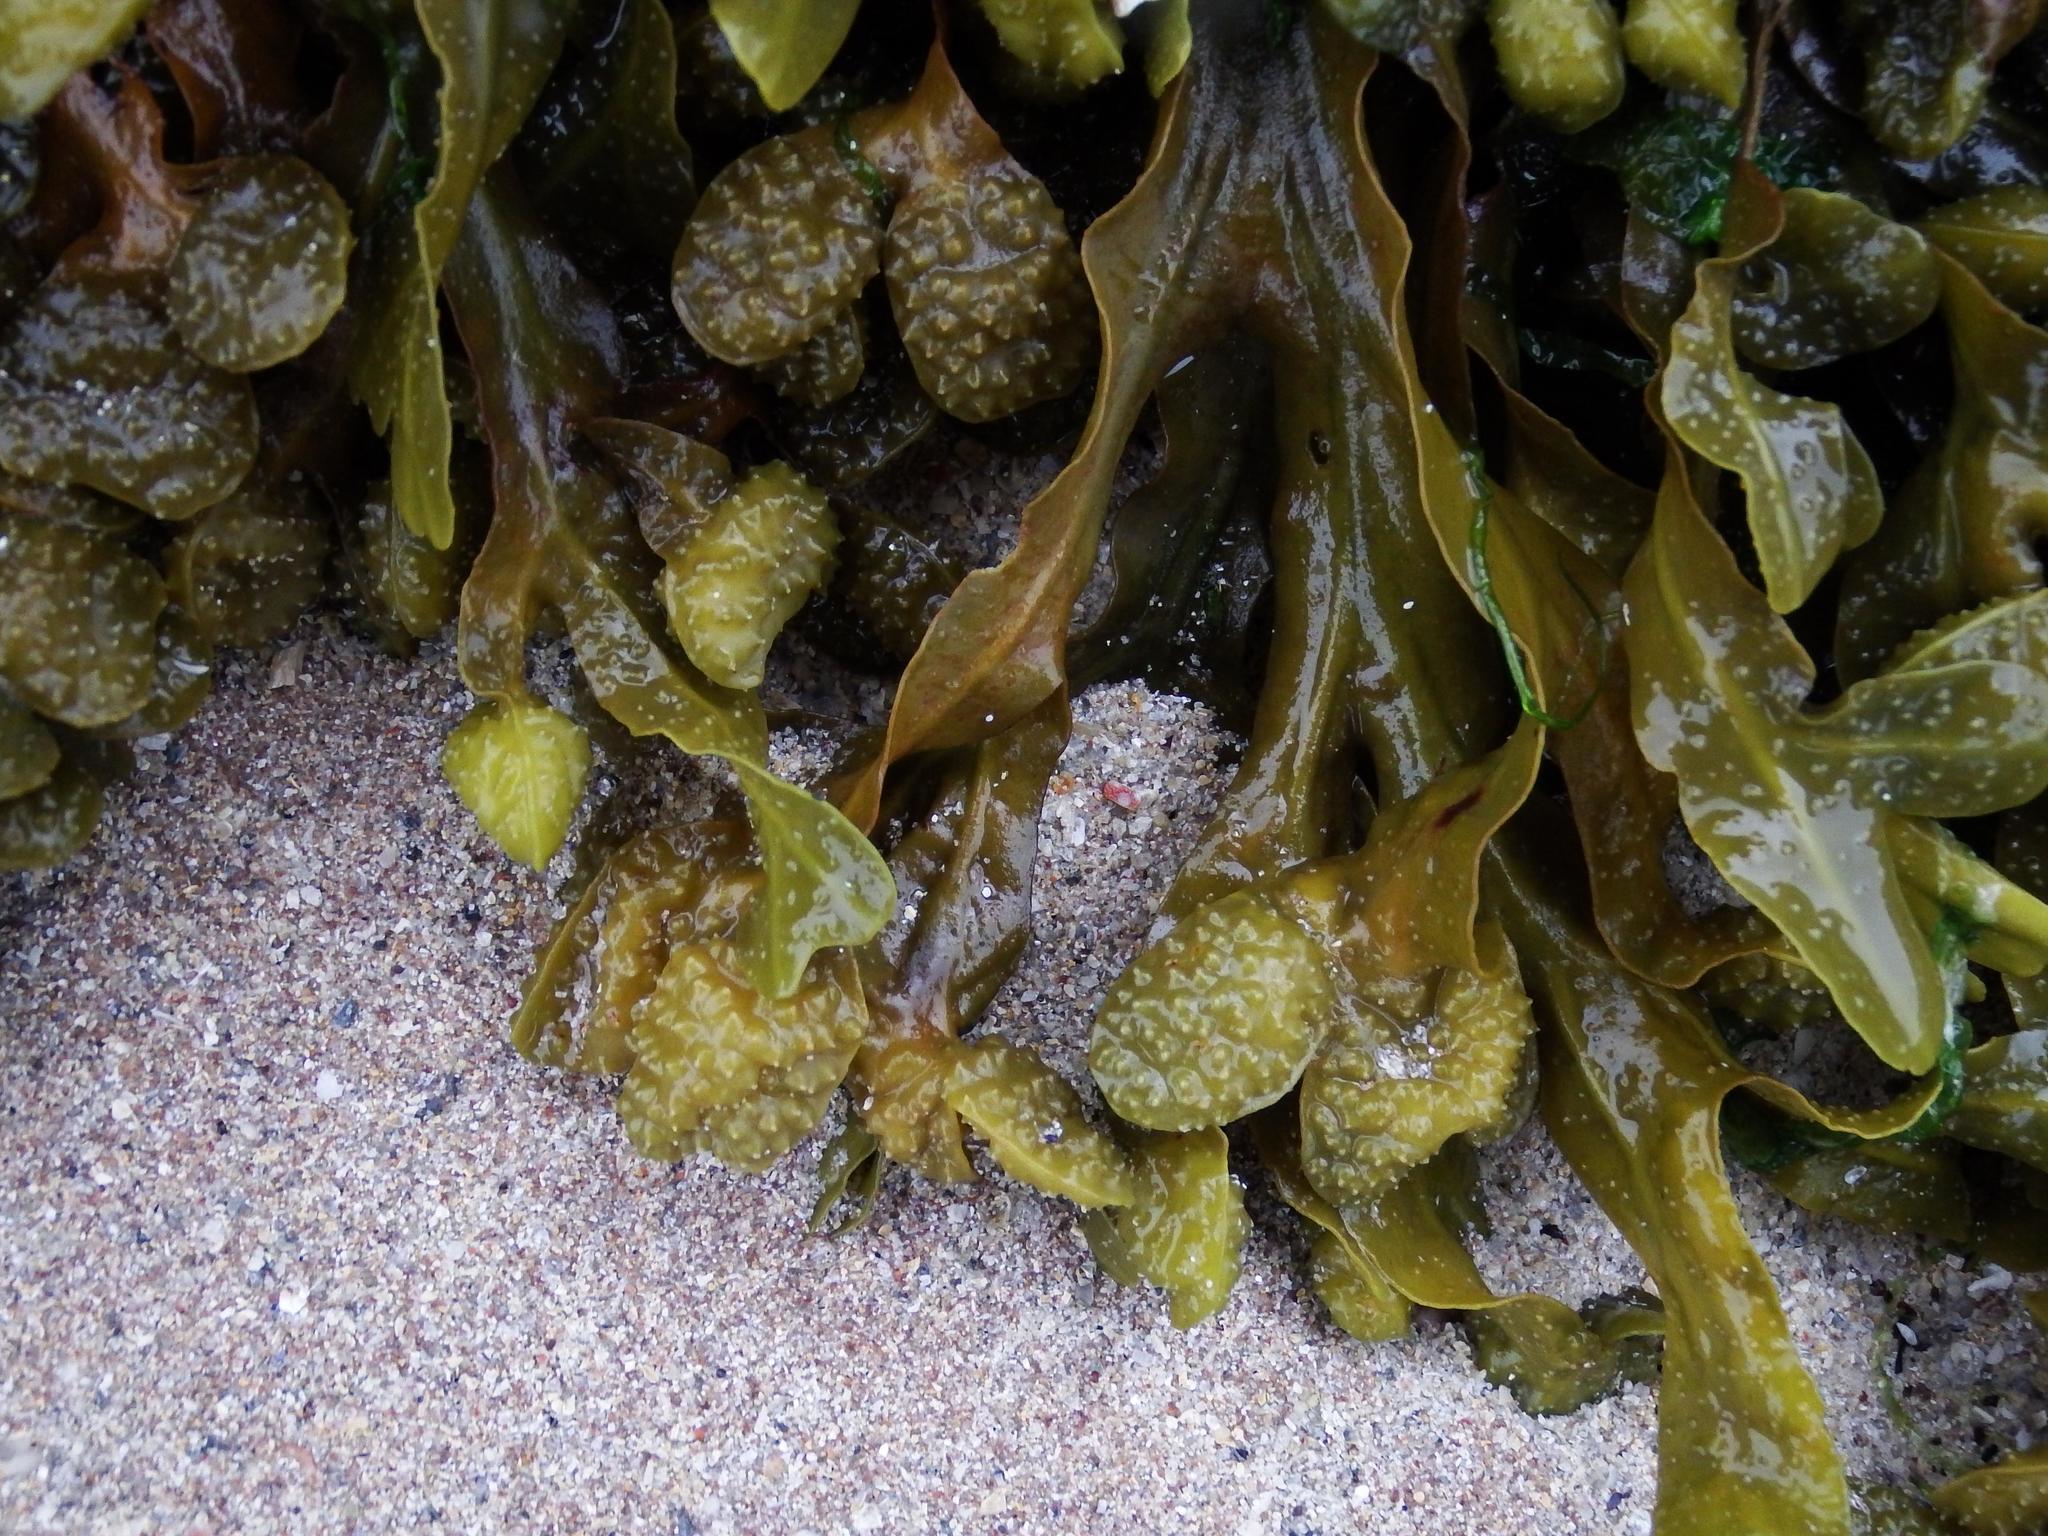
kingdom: Chromista
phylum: Ochrophyta
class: Phaeophyceae
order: Fucales
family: Fucaceae
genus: Fucus
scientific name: Fucus spiralis
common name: Spiral wrack
